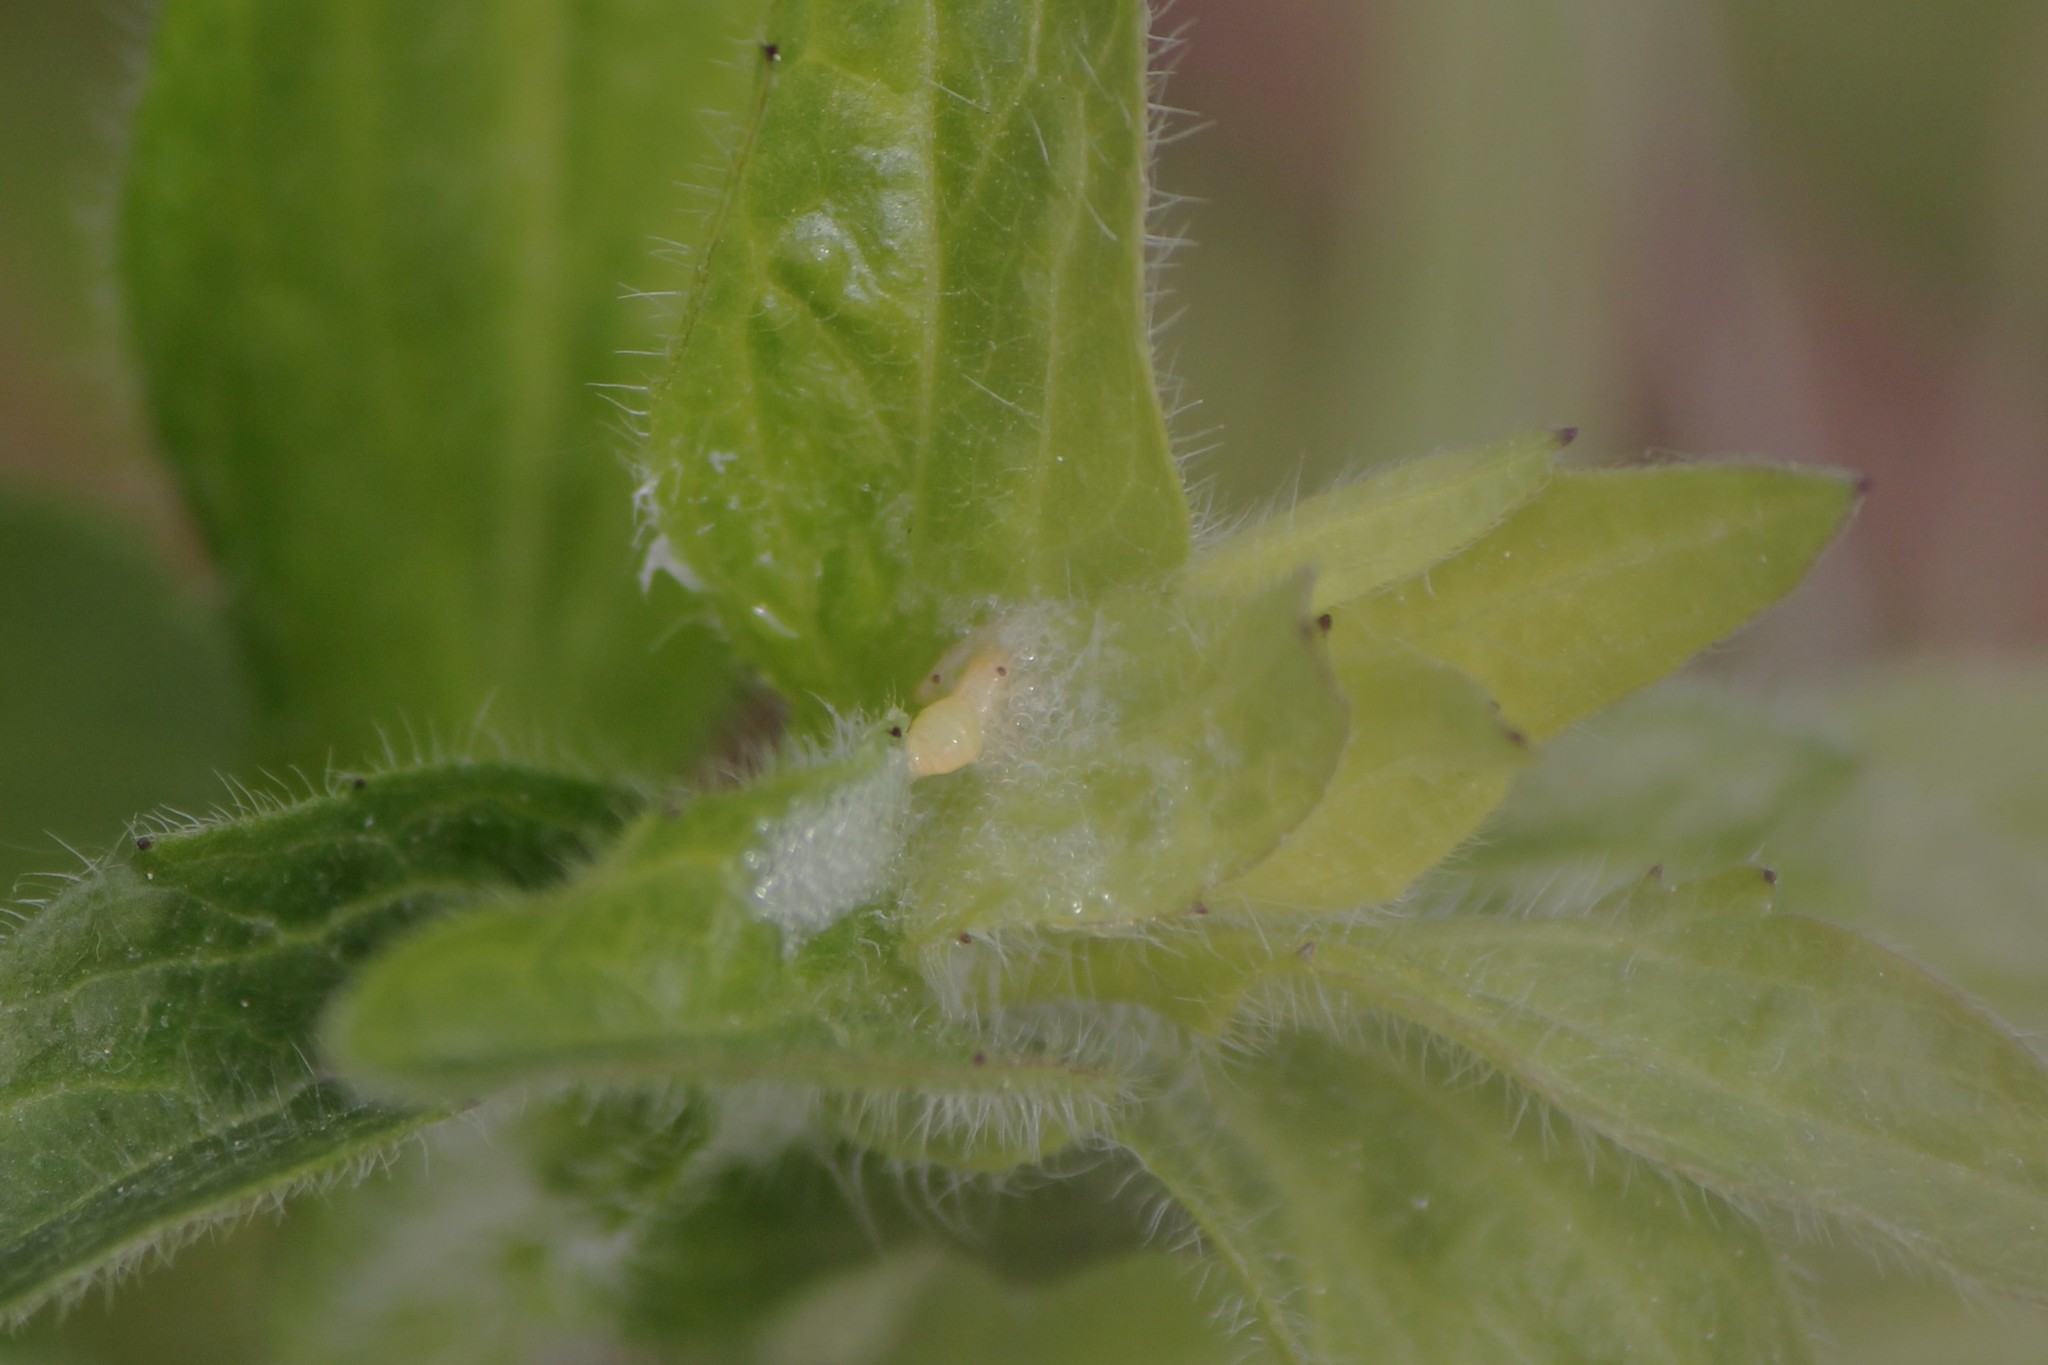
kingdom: Animalia
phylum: Arthropoda
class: Insecta
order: Hemiptera
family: Aphrophoridae
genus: Philaenus
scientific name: Philaenus spumarius
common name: Meadow spittlebug
